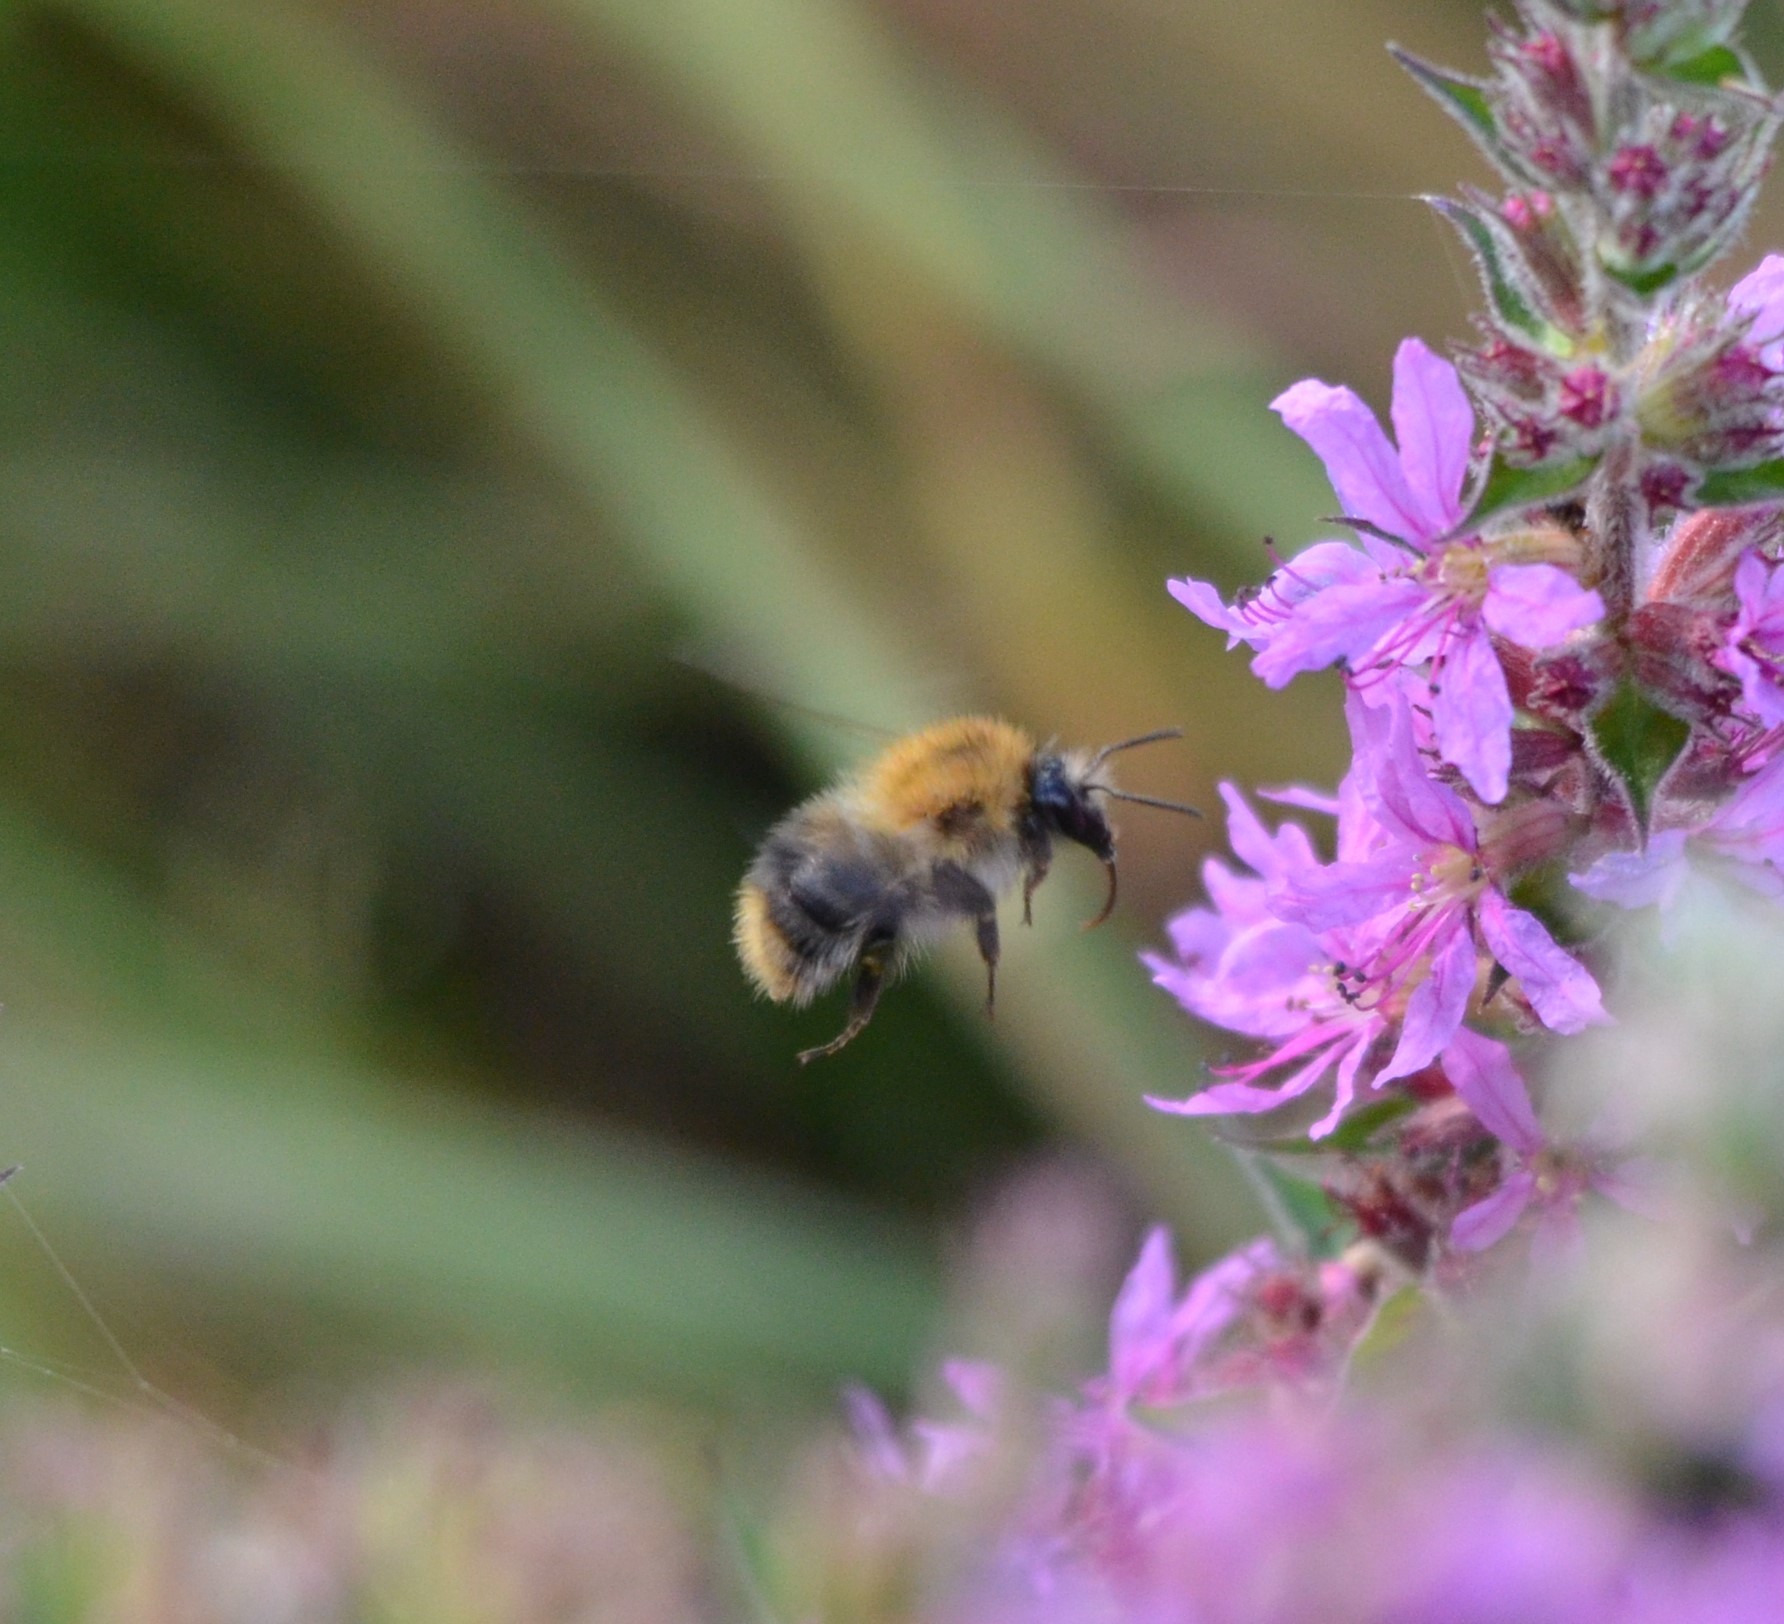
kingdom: Animalia
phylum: Arthropoda
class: Insecta
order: Hymenoptera
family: Apidae
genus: Bombus
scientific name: Bombus pascuorum
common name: Common carder bee
